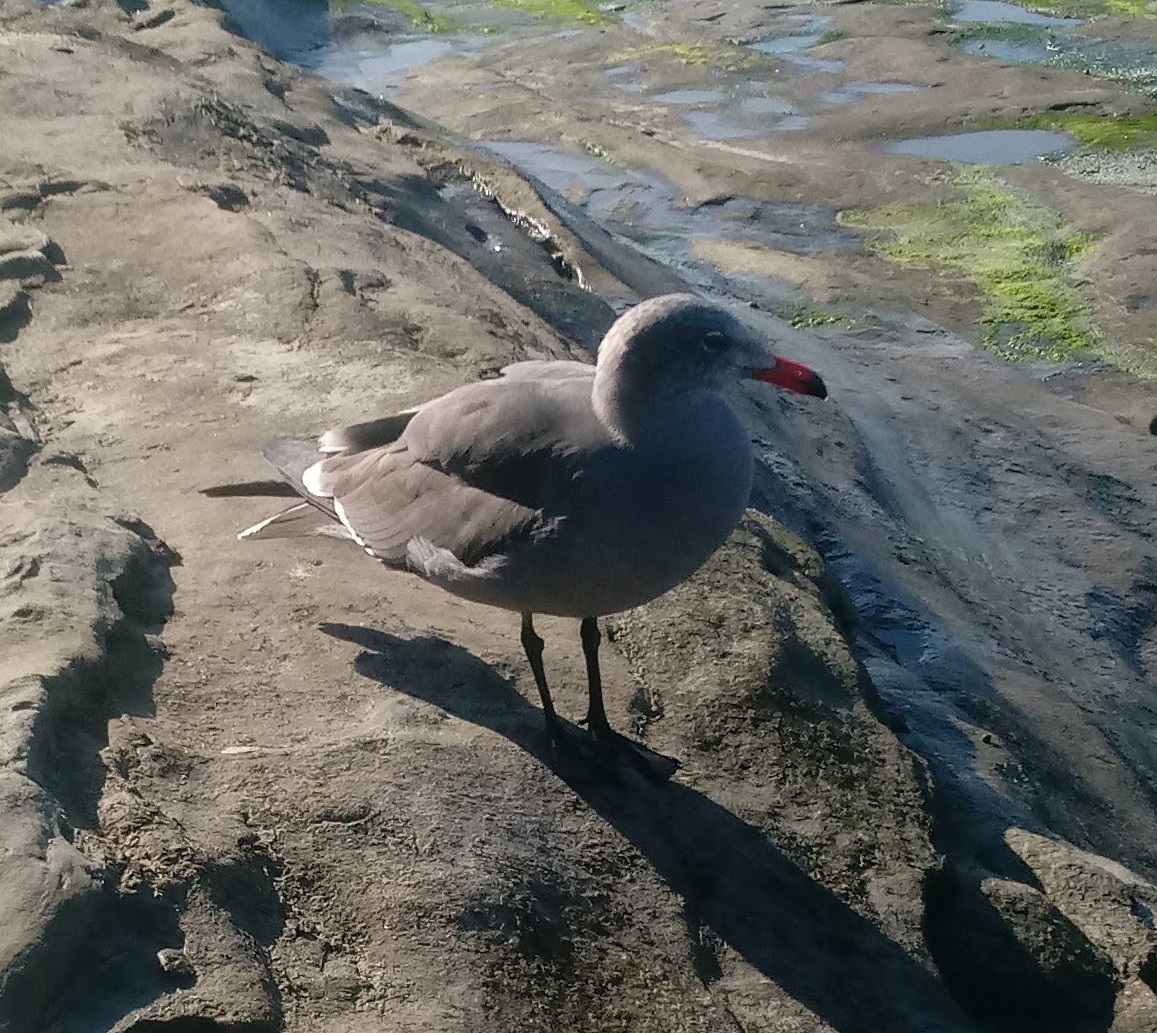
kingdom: Animalia
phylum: Chordata
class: Aves
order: Charadriiformes
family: Laridae
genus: Larus
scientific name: Larus heermanni
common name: Heermann's gull
